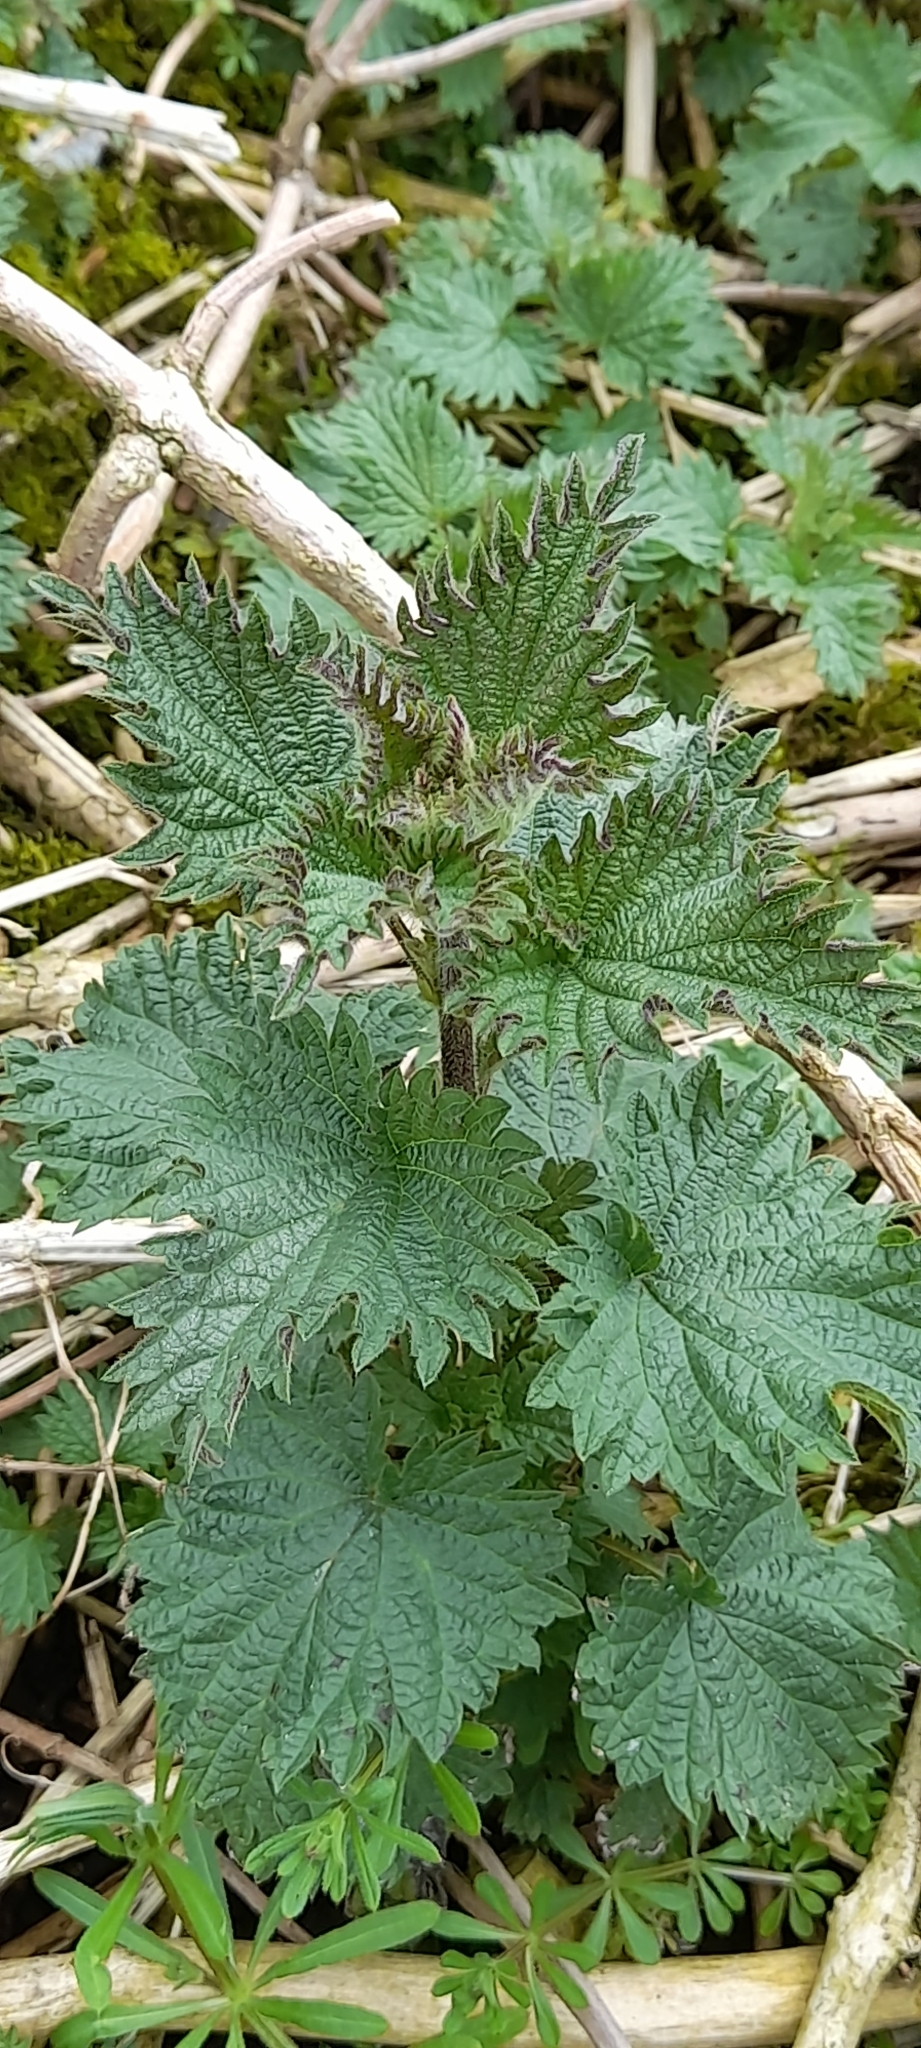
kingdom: Plantae
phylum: Tracheophyta
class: Magnoliopsida
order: Rosales
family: Urticaceae
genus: Urtica
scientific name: Urtica dioica
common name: Common nettle
